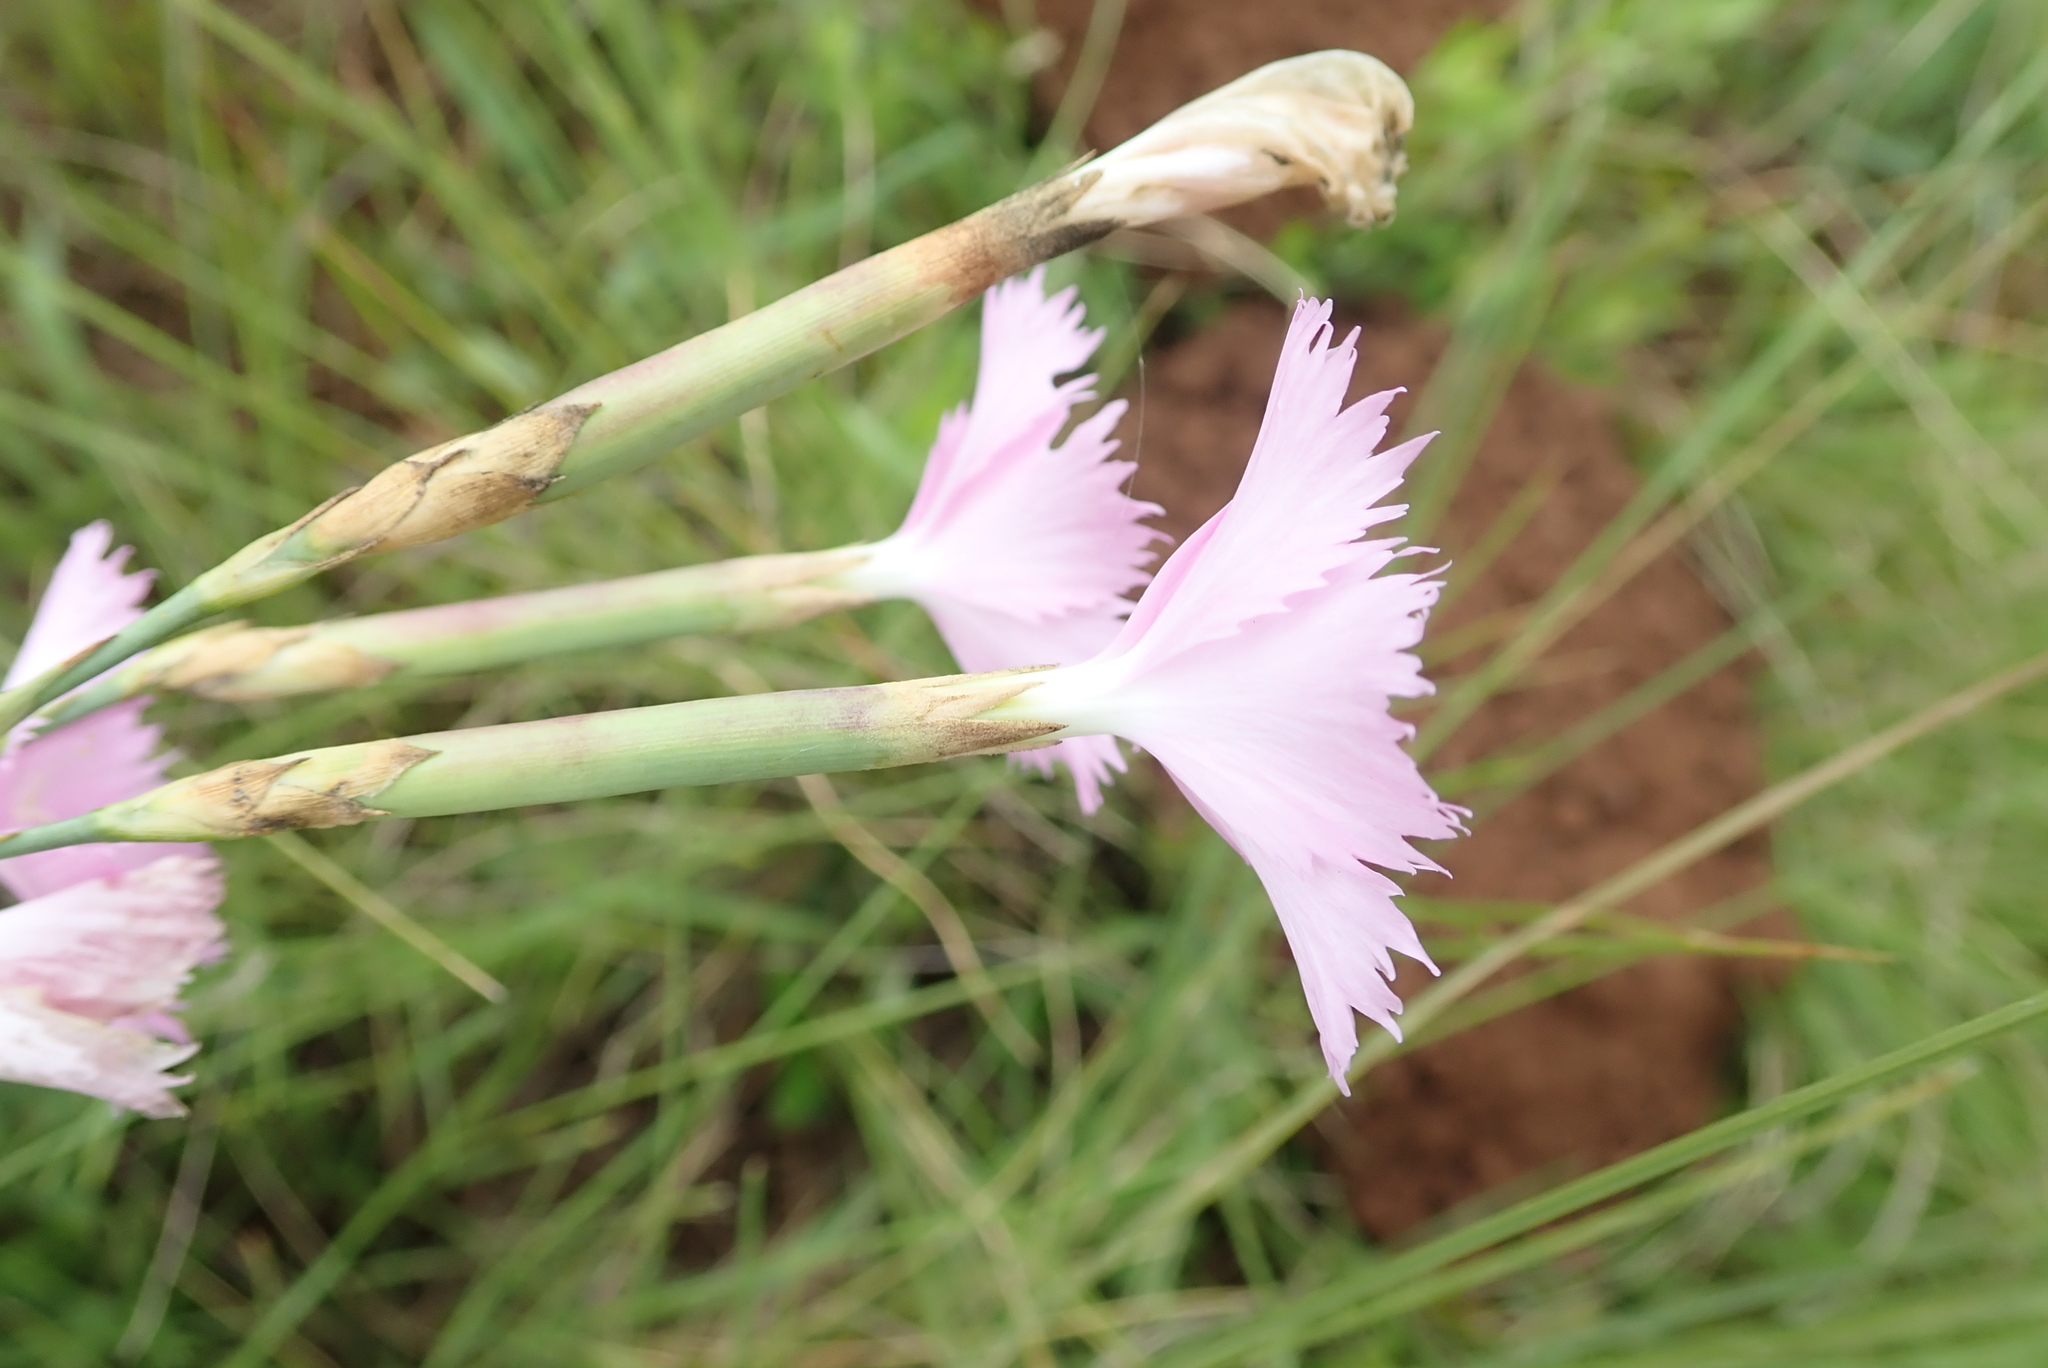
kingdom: Plantae
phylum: Tracheophyta
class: Magnoliopsida
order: Caryophyllales
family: Caryophyllaceae
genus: Dianthus
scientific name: Dianthus zeyheri
